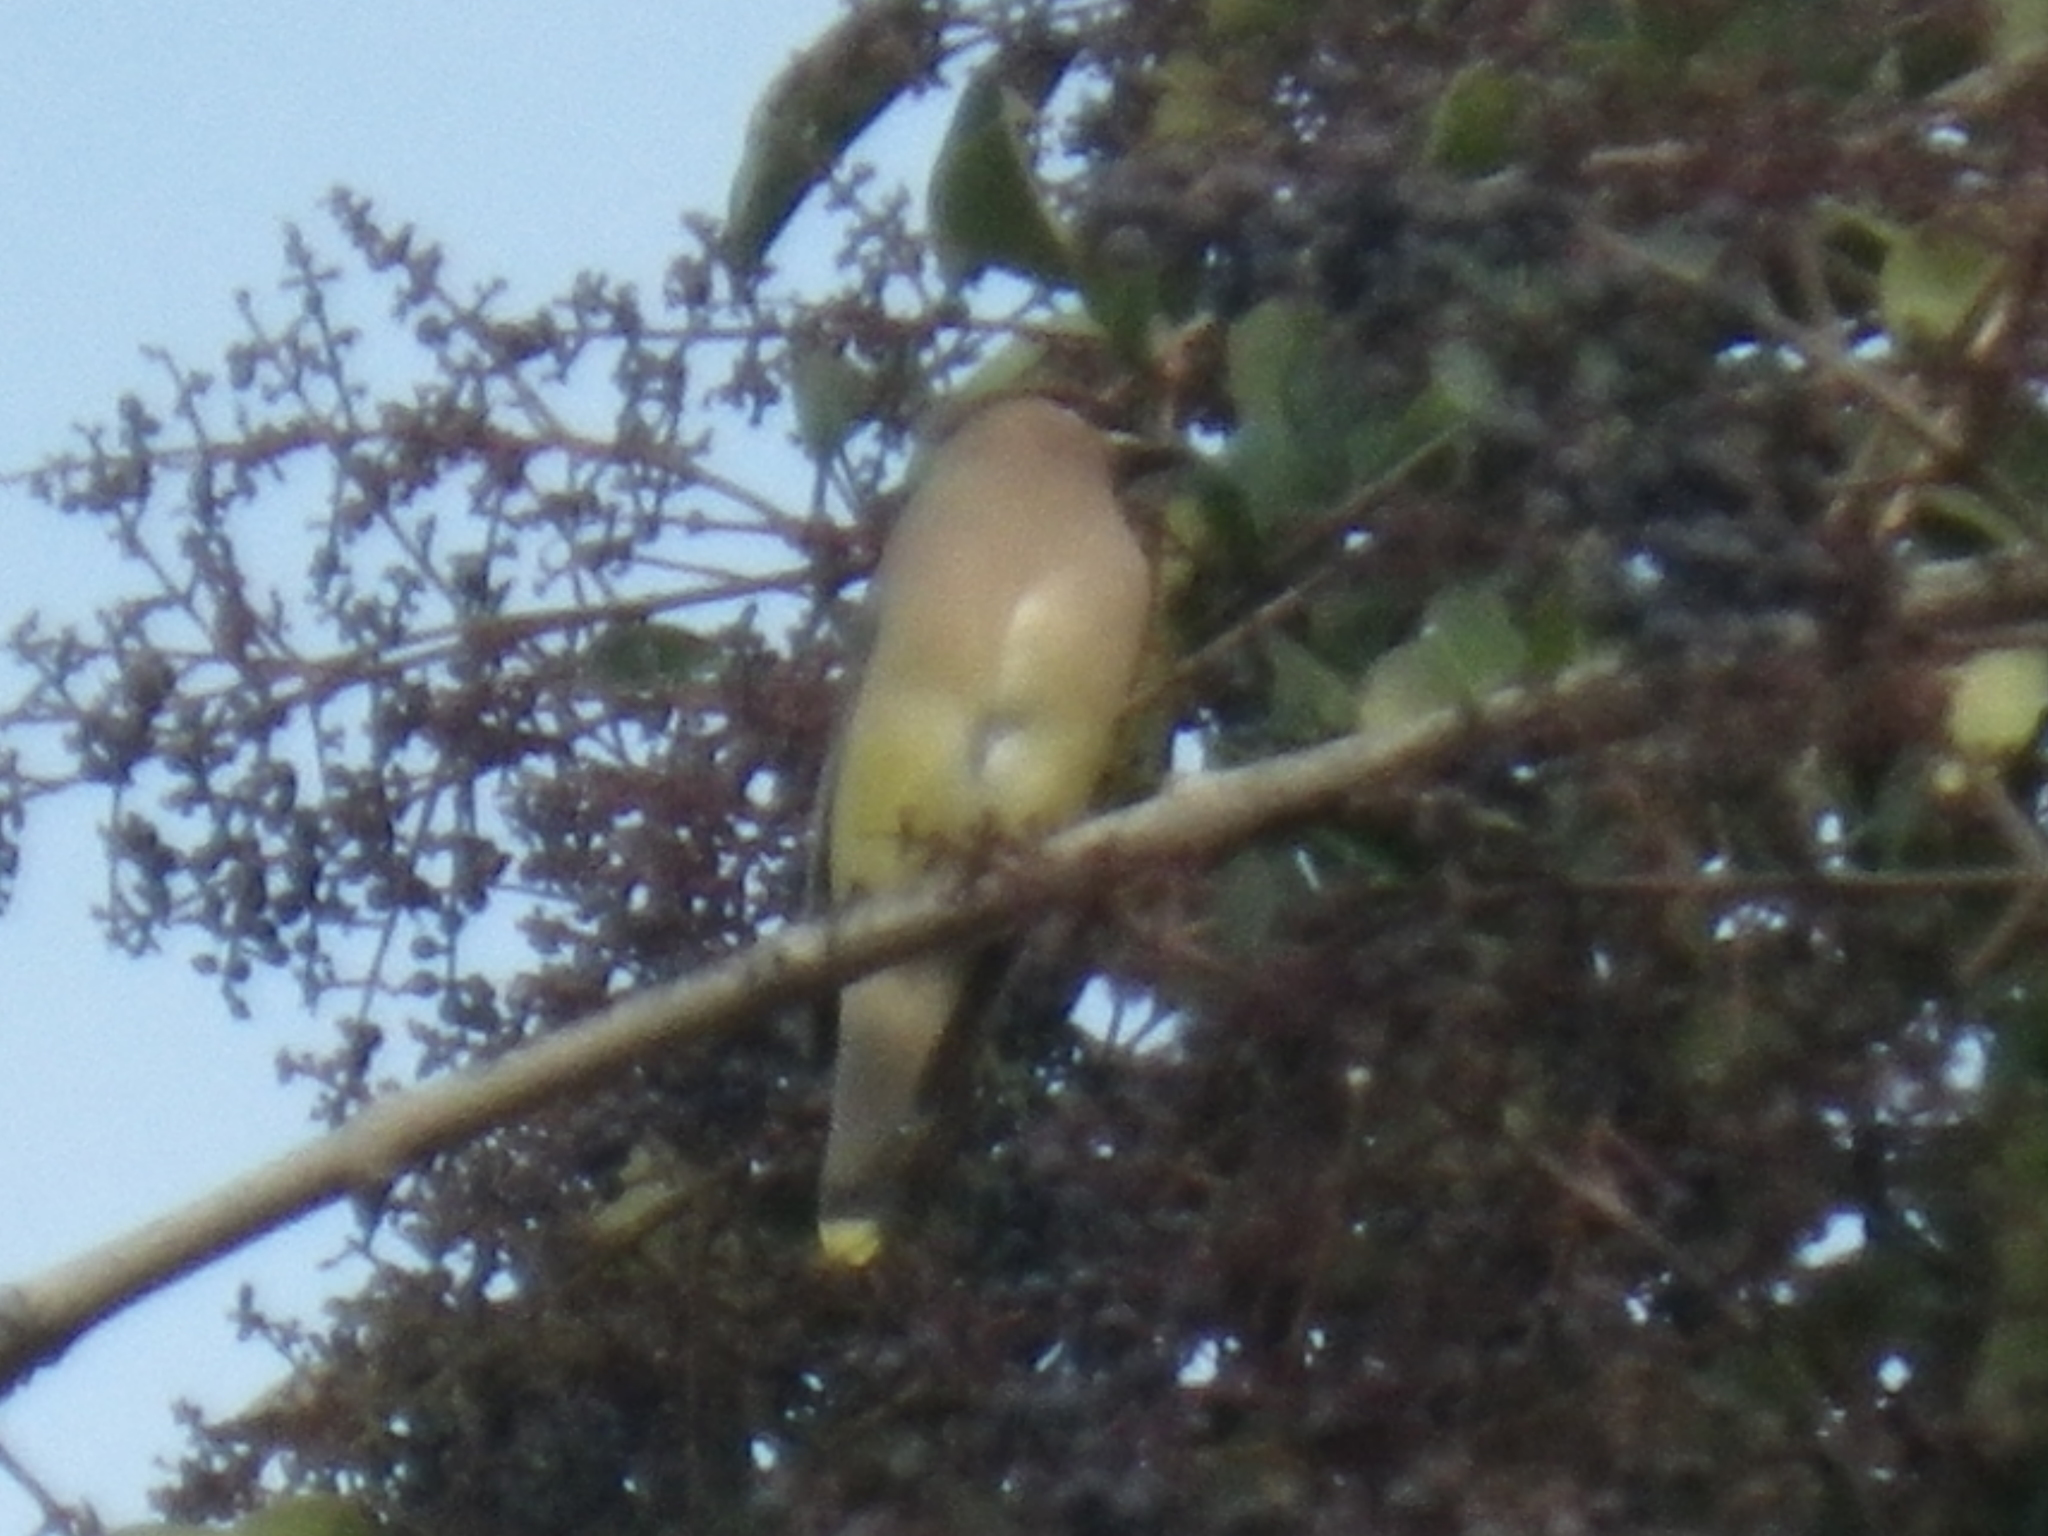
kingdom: Animalia
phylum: Chordata
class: Aves
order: Passeriformes
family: Bombycillidae
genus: Bombycilla
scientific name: Bombycilla cedrorum
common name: Cedar waxwing
